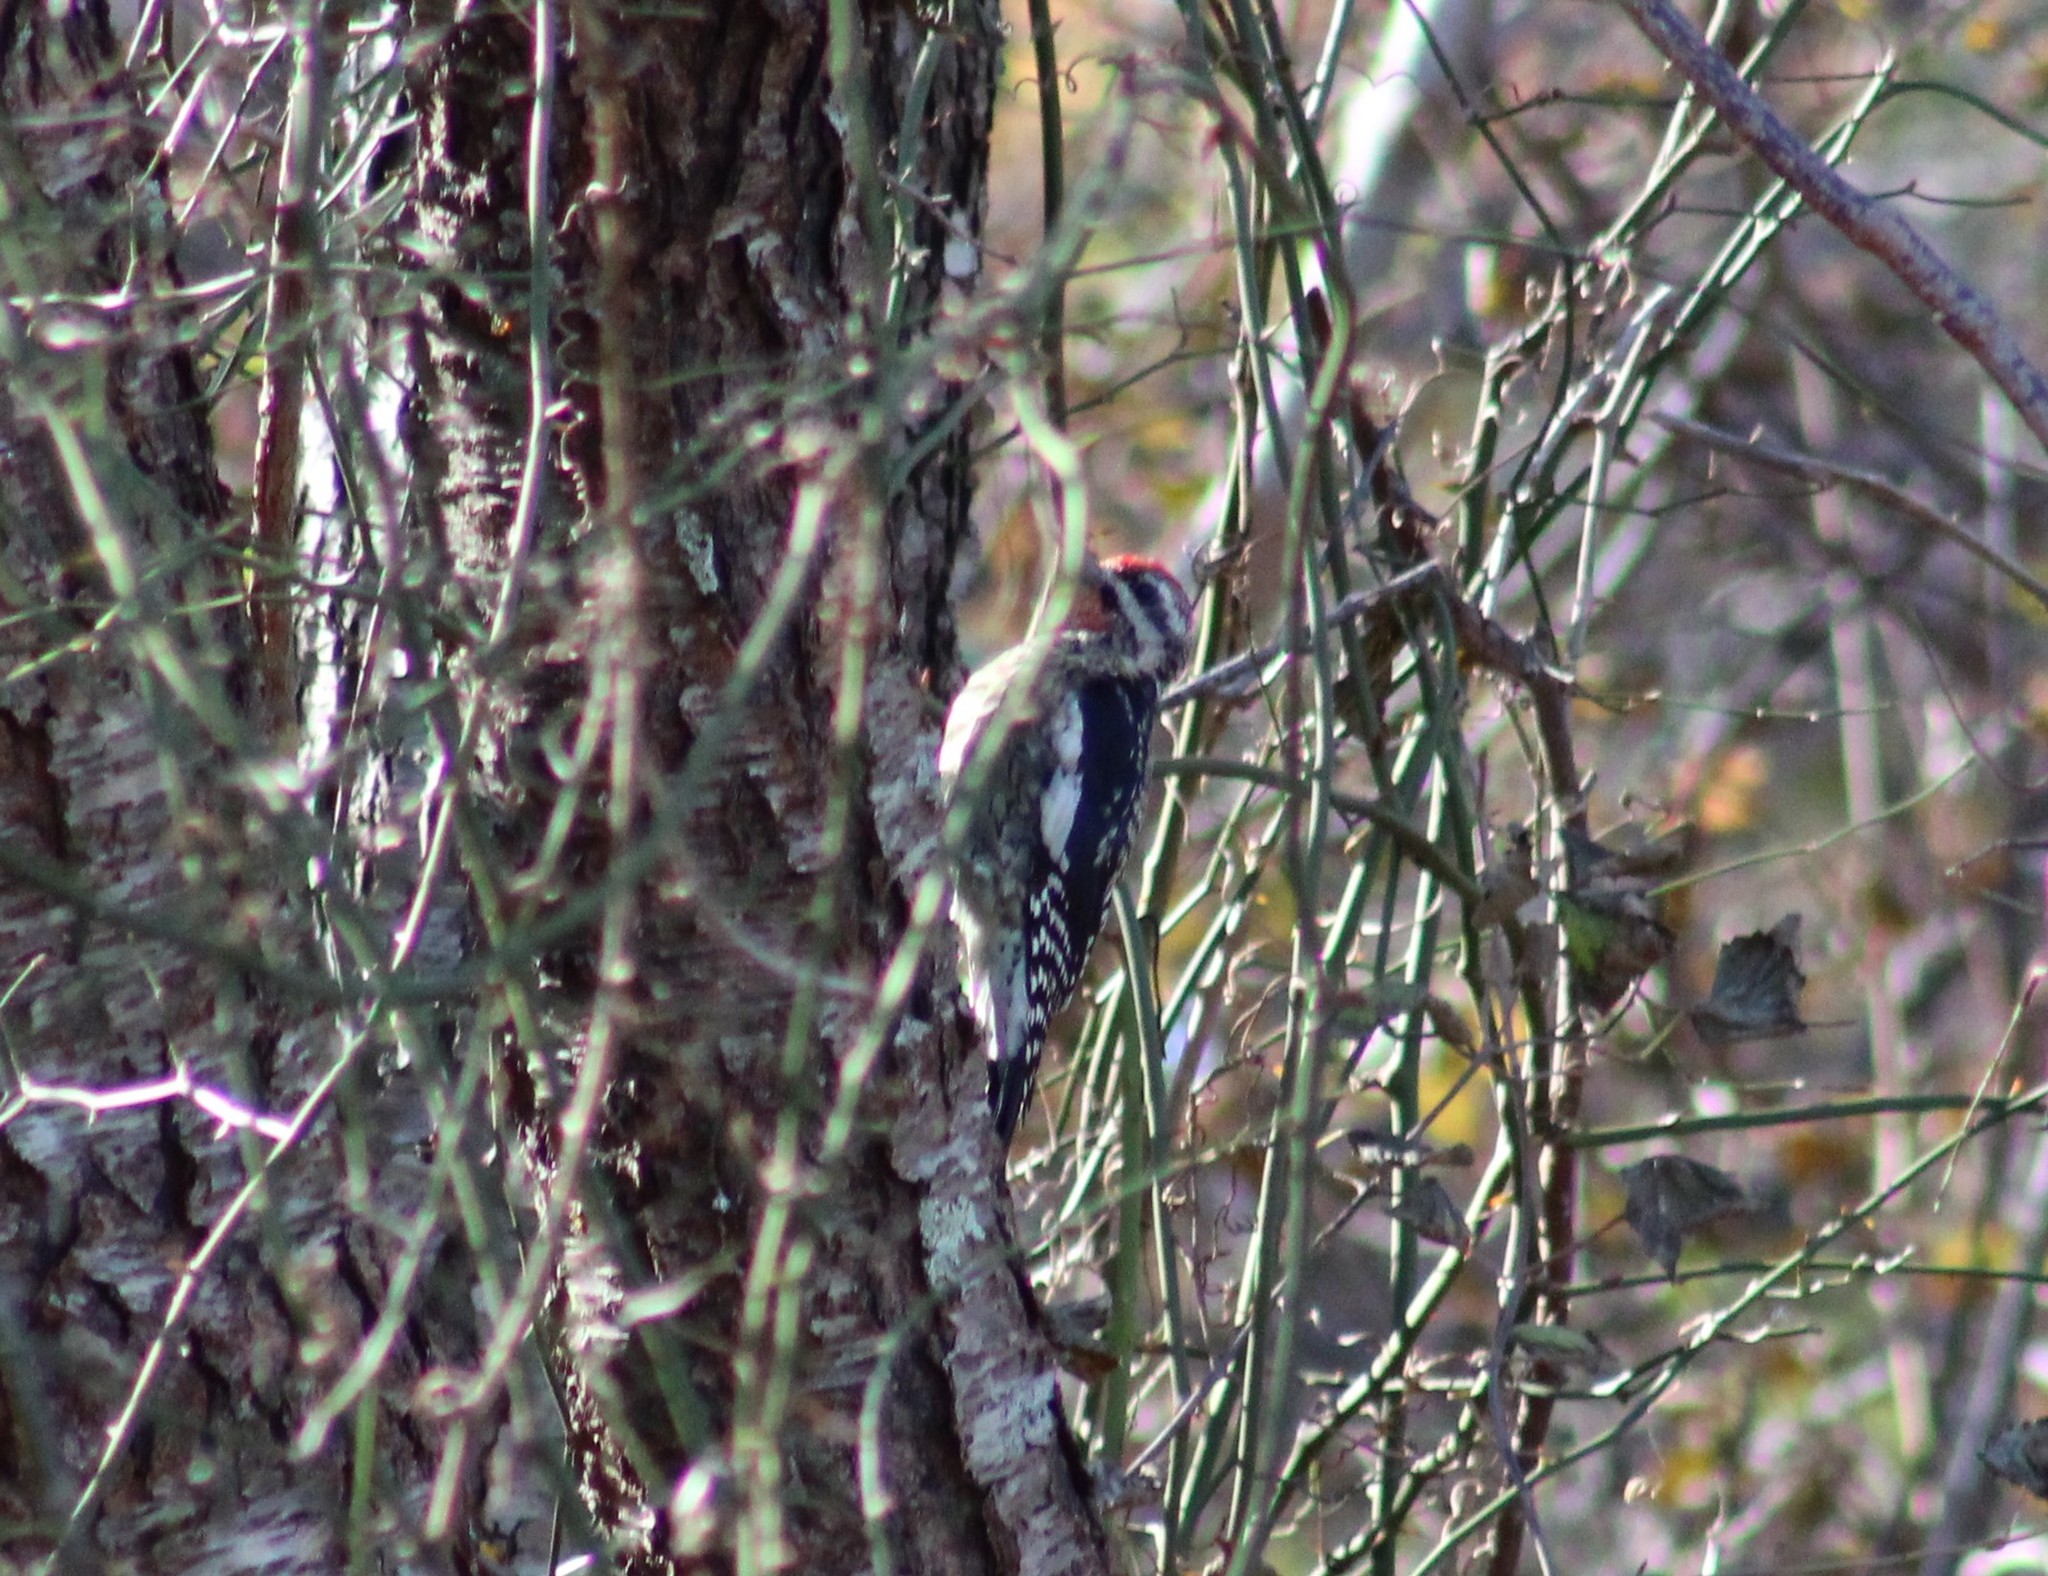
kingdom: Animalia
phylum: Chordata
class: Aves
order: Piciformes
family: Picidae
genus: Sphyrapicus
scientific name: Sphyrapicus varius
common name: Yellow-bellied sapsucker
